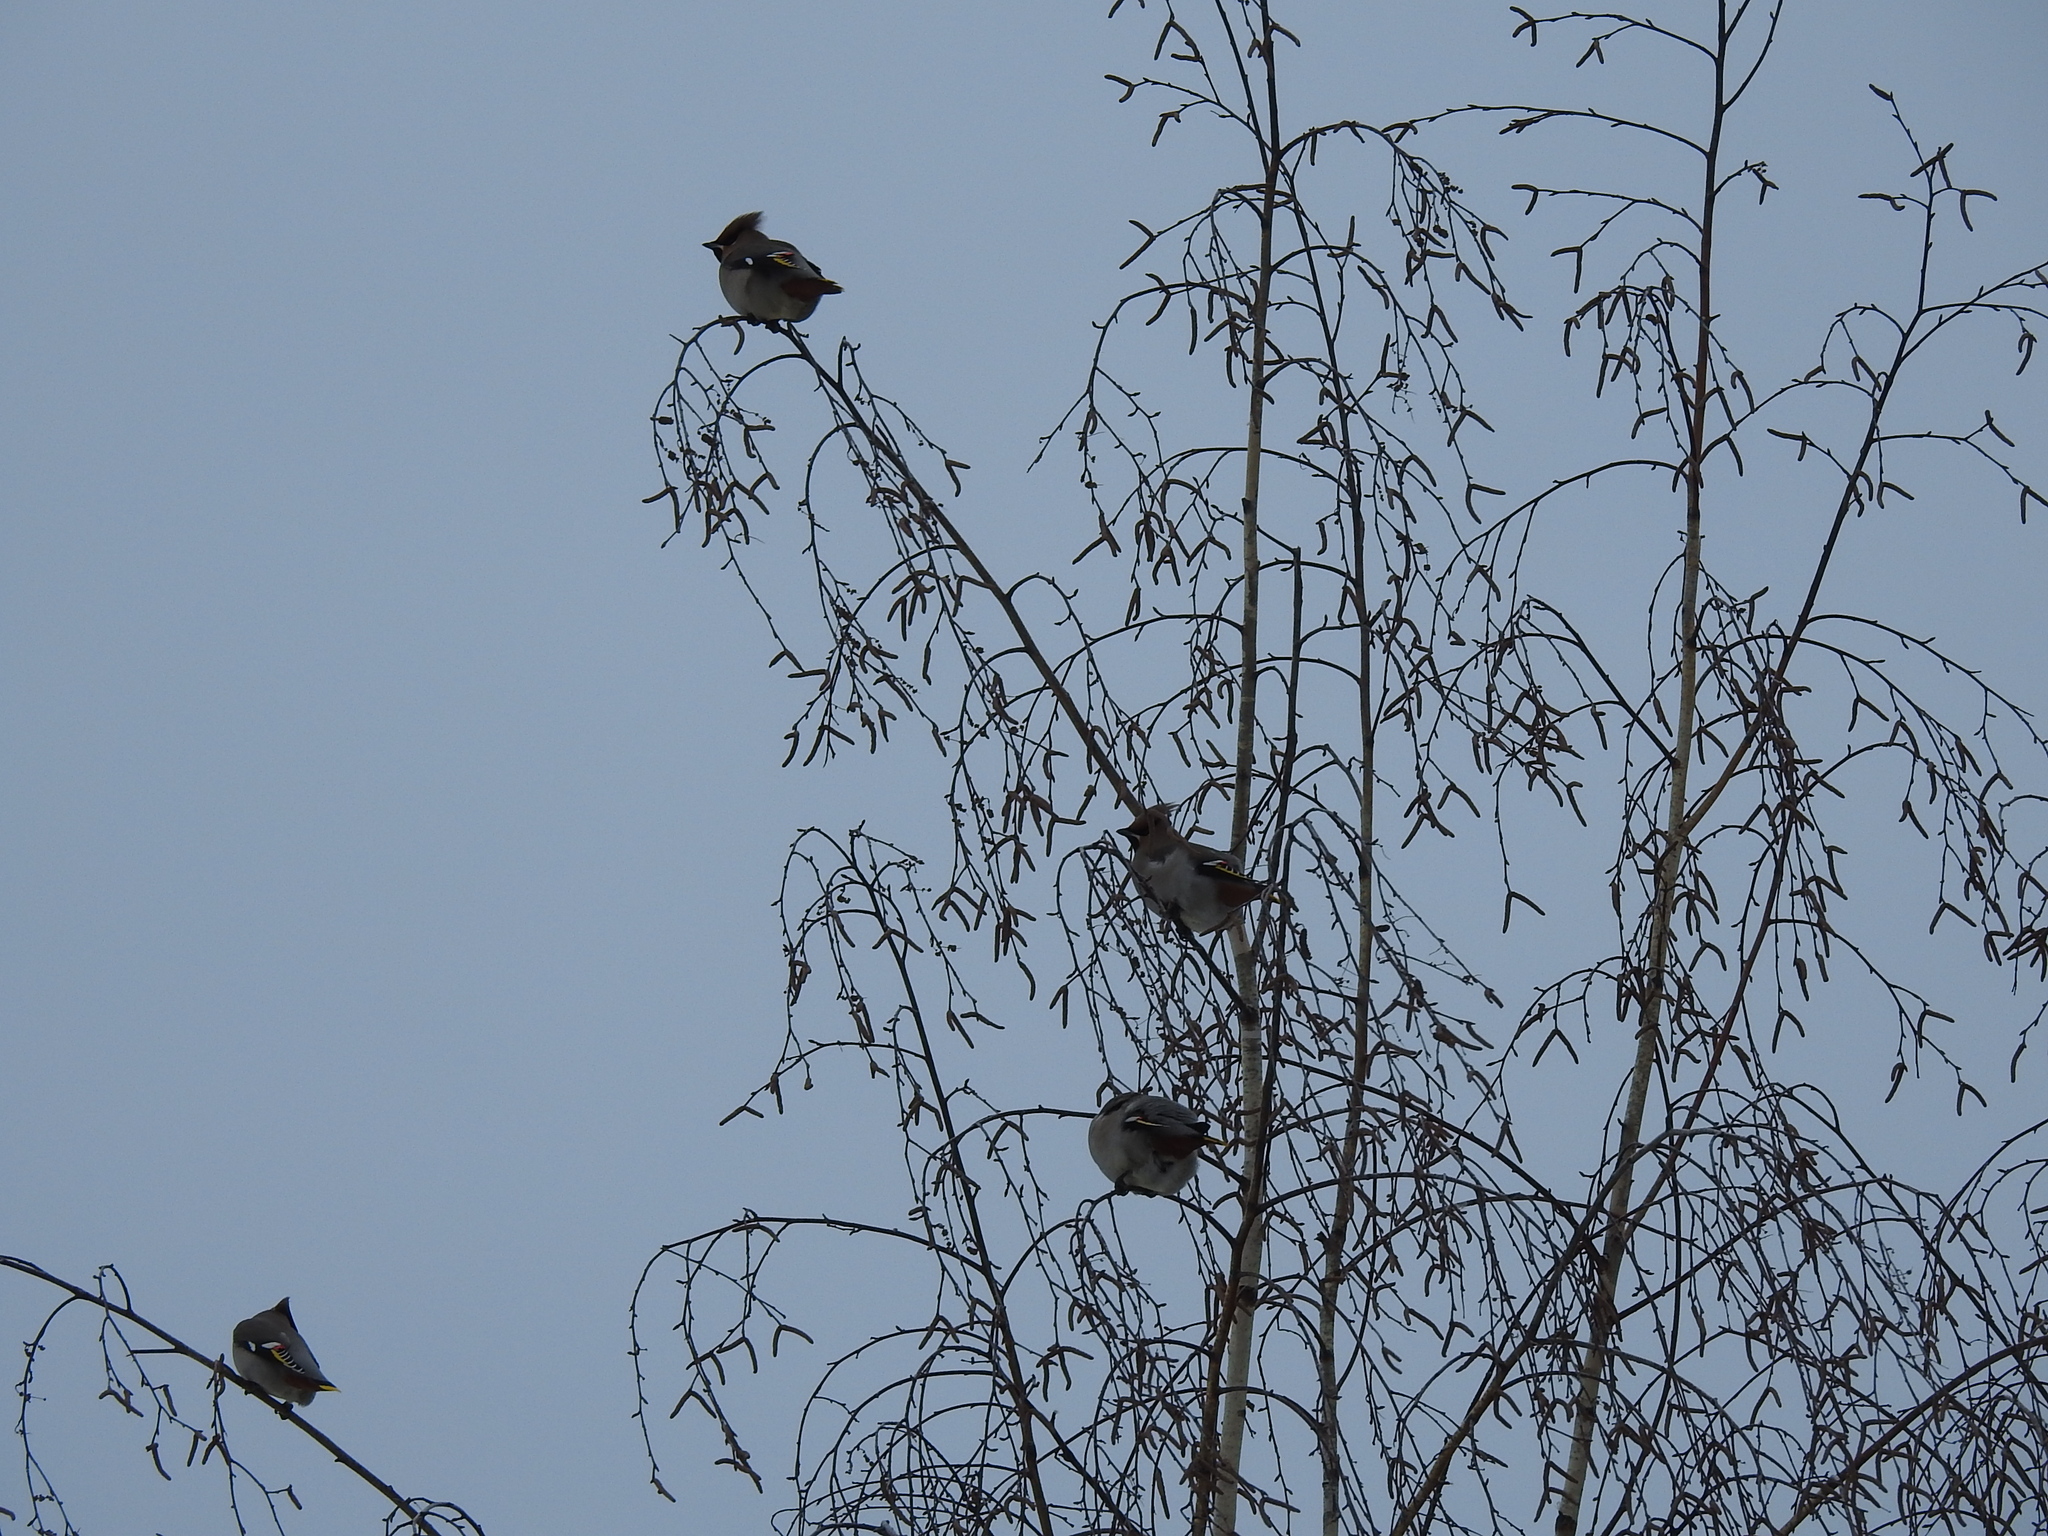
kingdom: Animalia
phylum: Chordata
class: Aves
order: Passeriformes
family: Bombycillidae
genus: Bombycilla
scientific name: Bombycilla garrulus
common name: Bohemian waxwing
